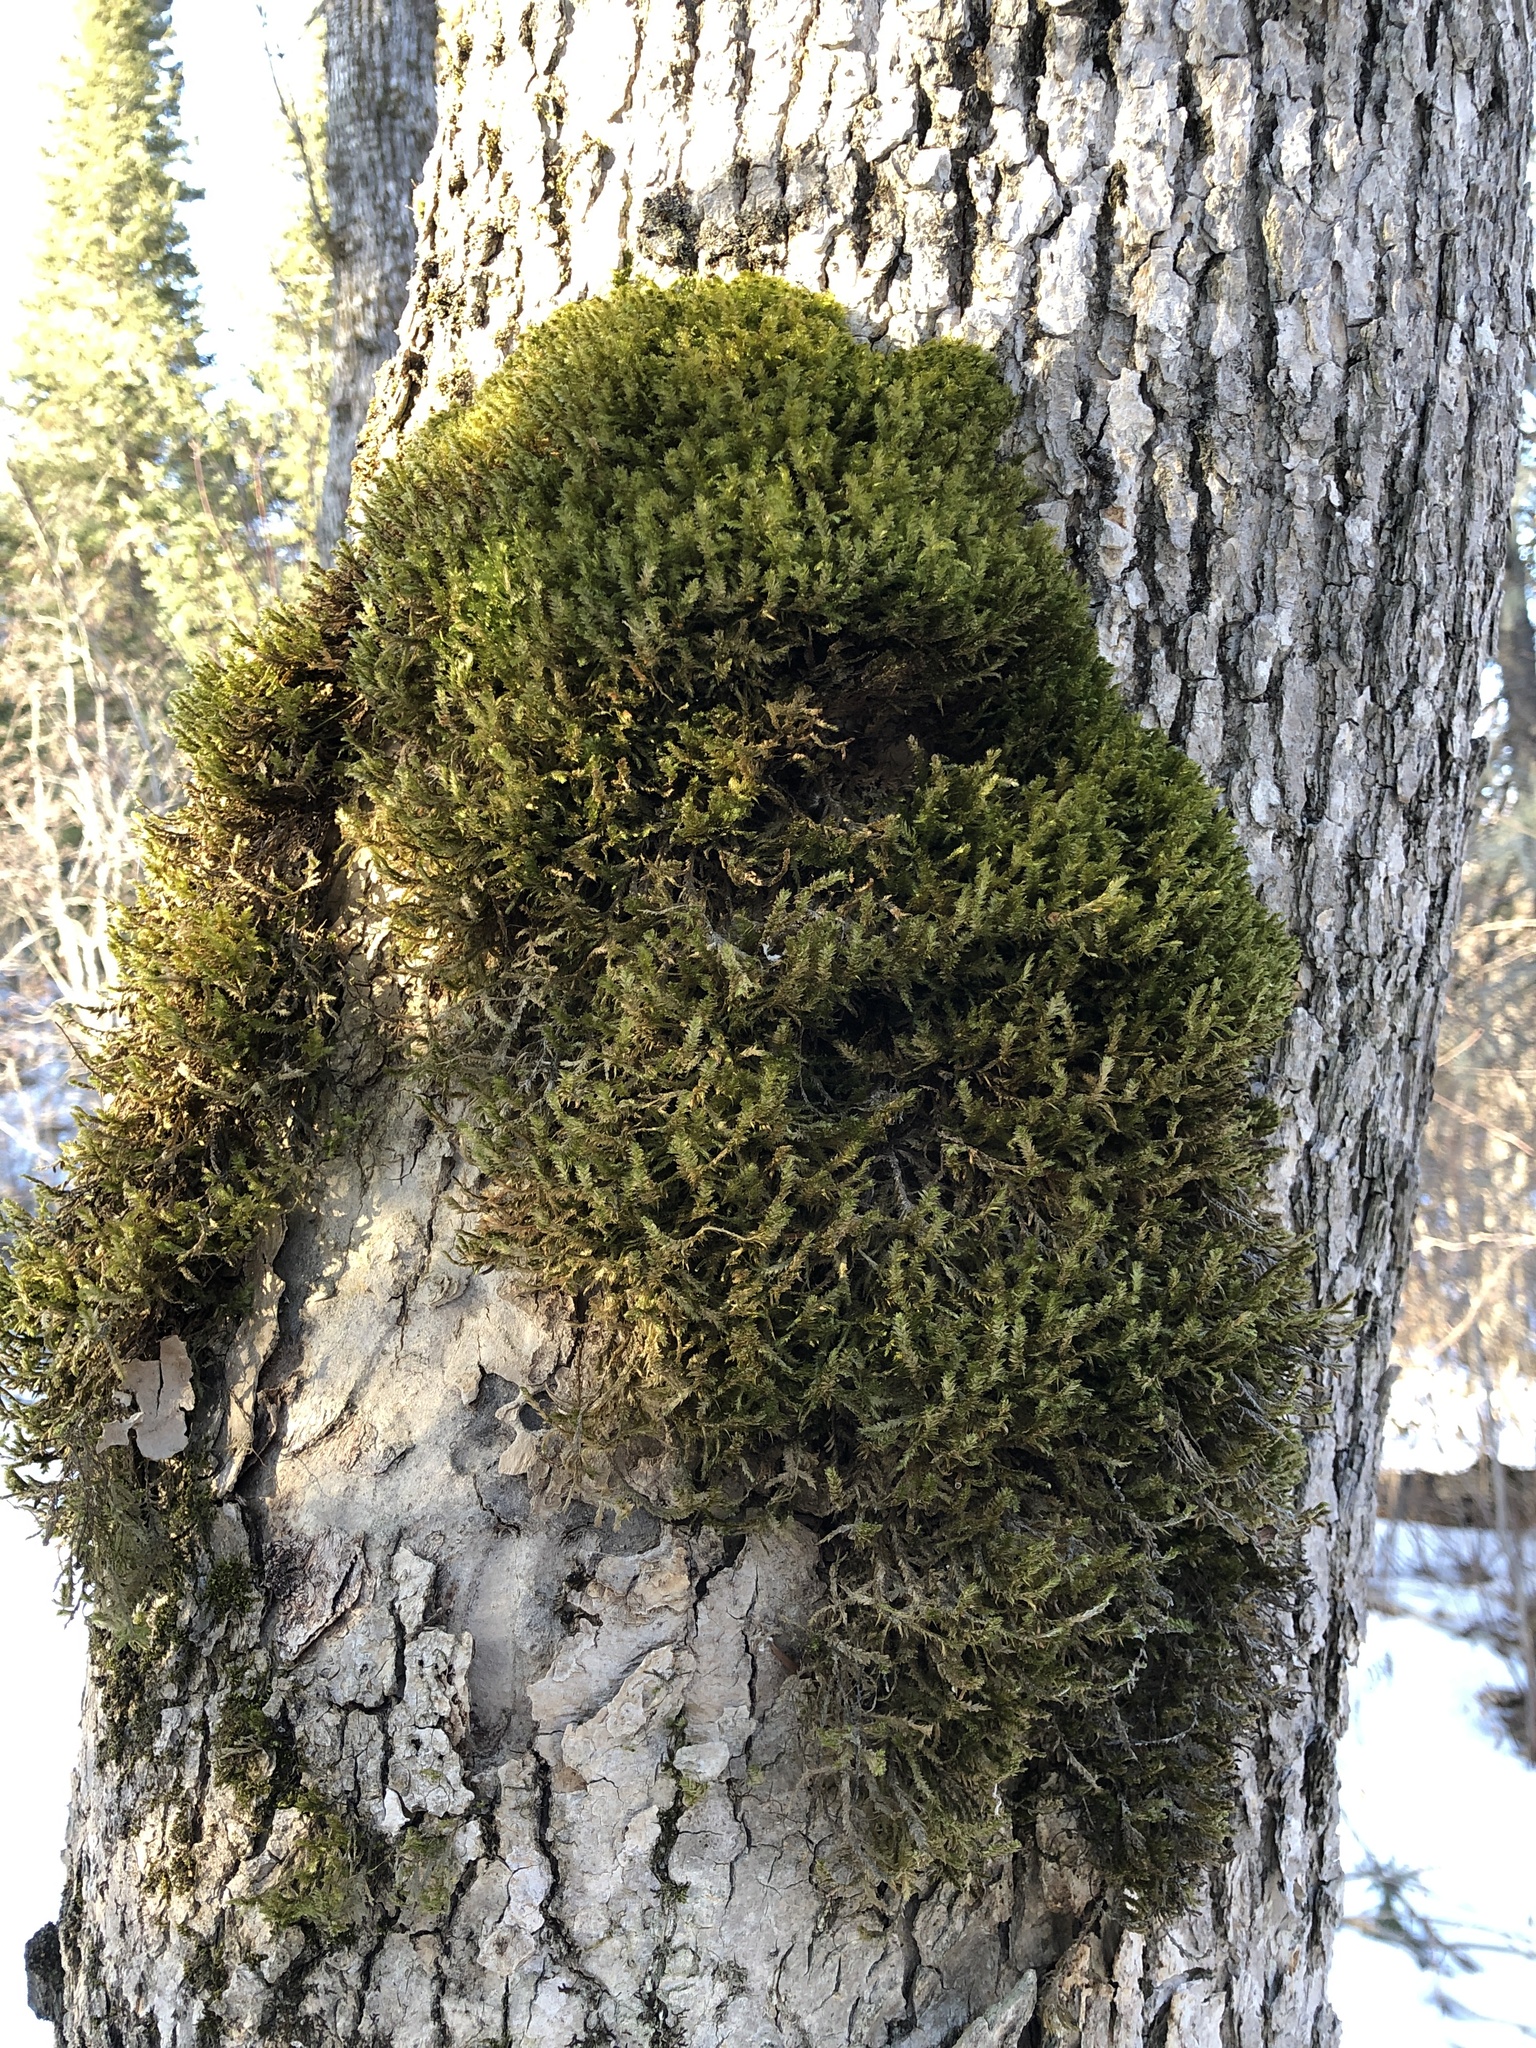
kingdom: Plantae
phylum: Bryophyta
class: Bryopsida
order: Hypnales
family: Neckeraceae
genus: Neckera
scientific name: Neckera pennata
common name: Feathery neckera
